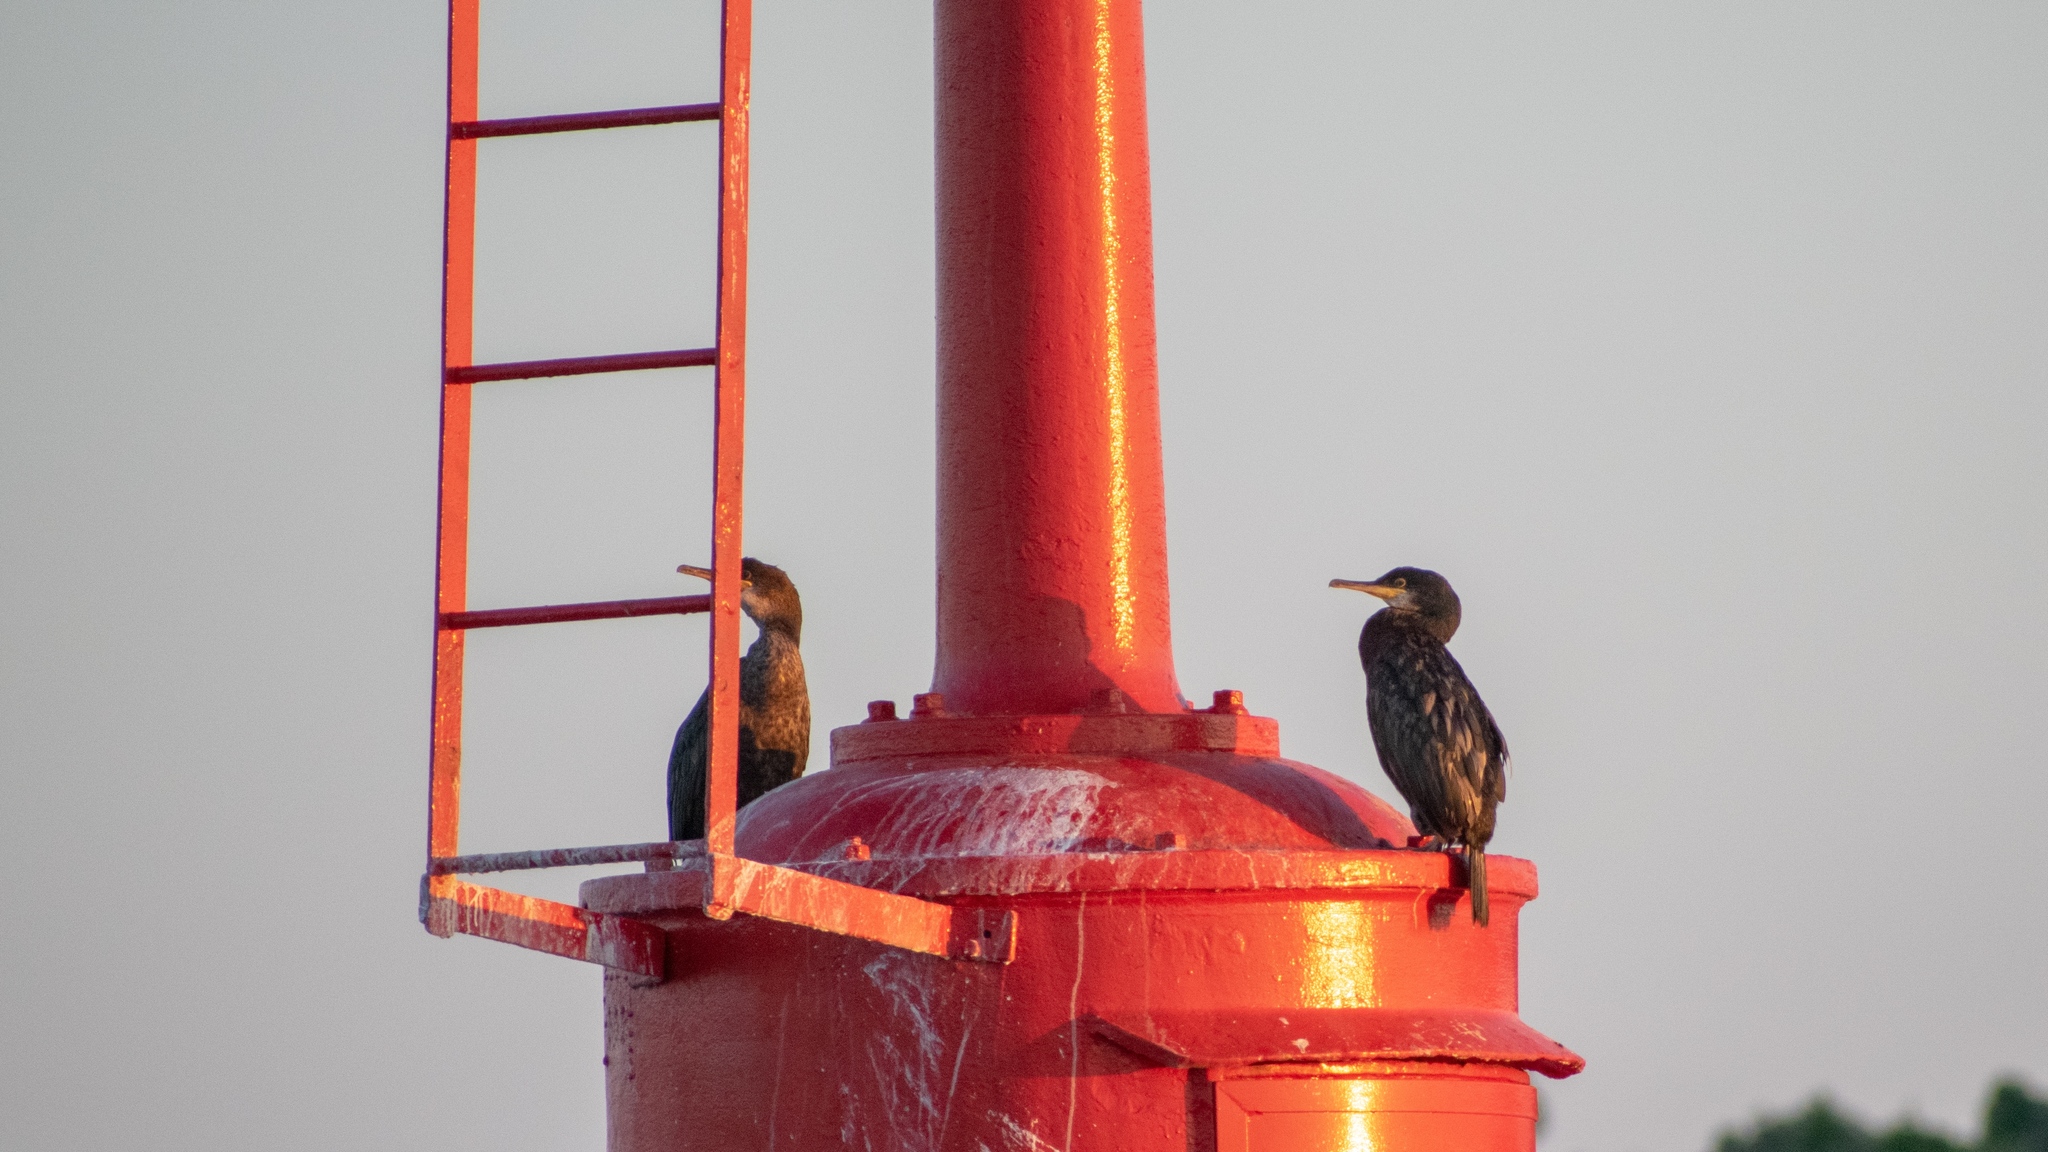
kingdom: Animalia
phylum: Chordata
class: Aves
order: Suliformes
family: Phalacrocoracidae
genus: Phalacrocorax
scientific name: Phalacrocorax aristotelis
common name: European shag
